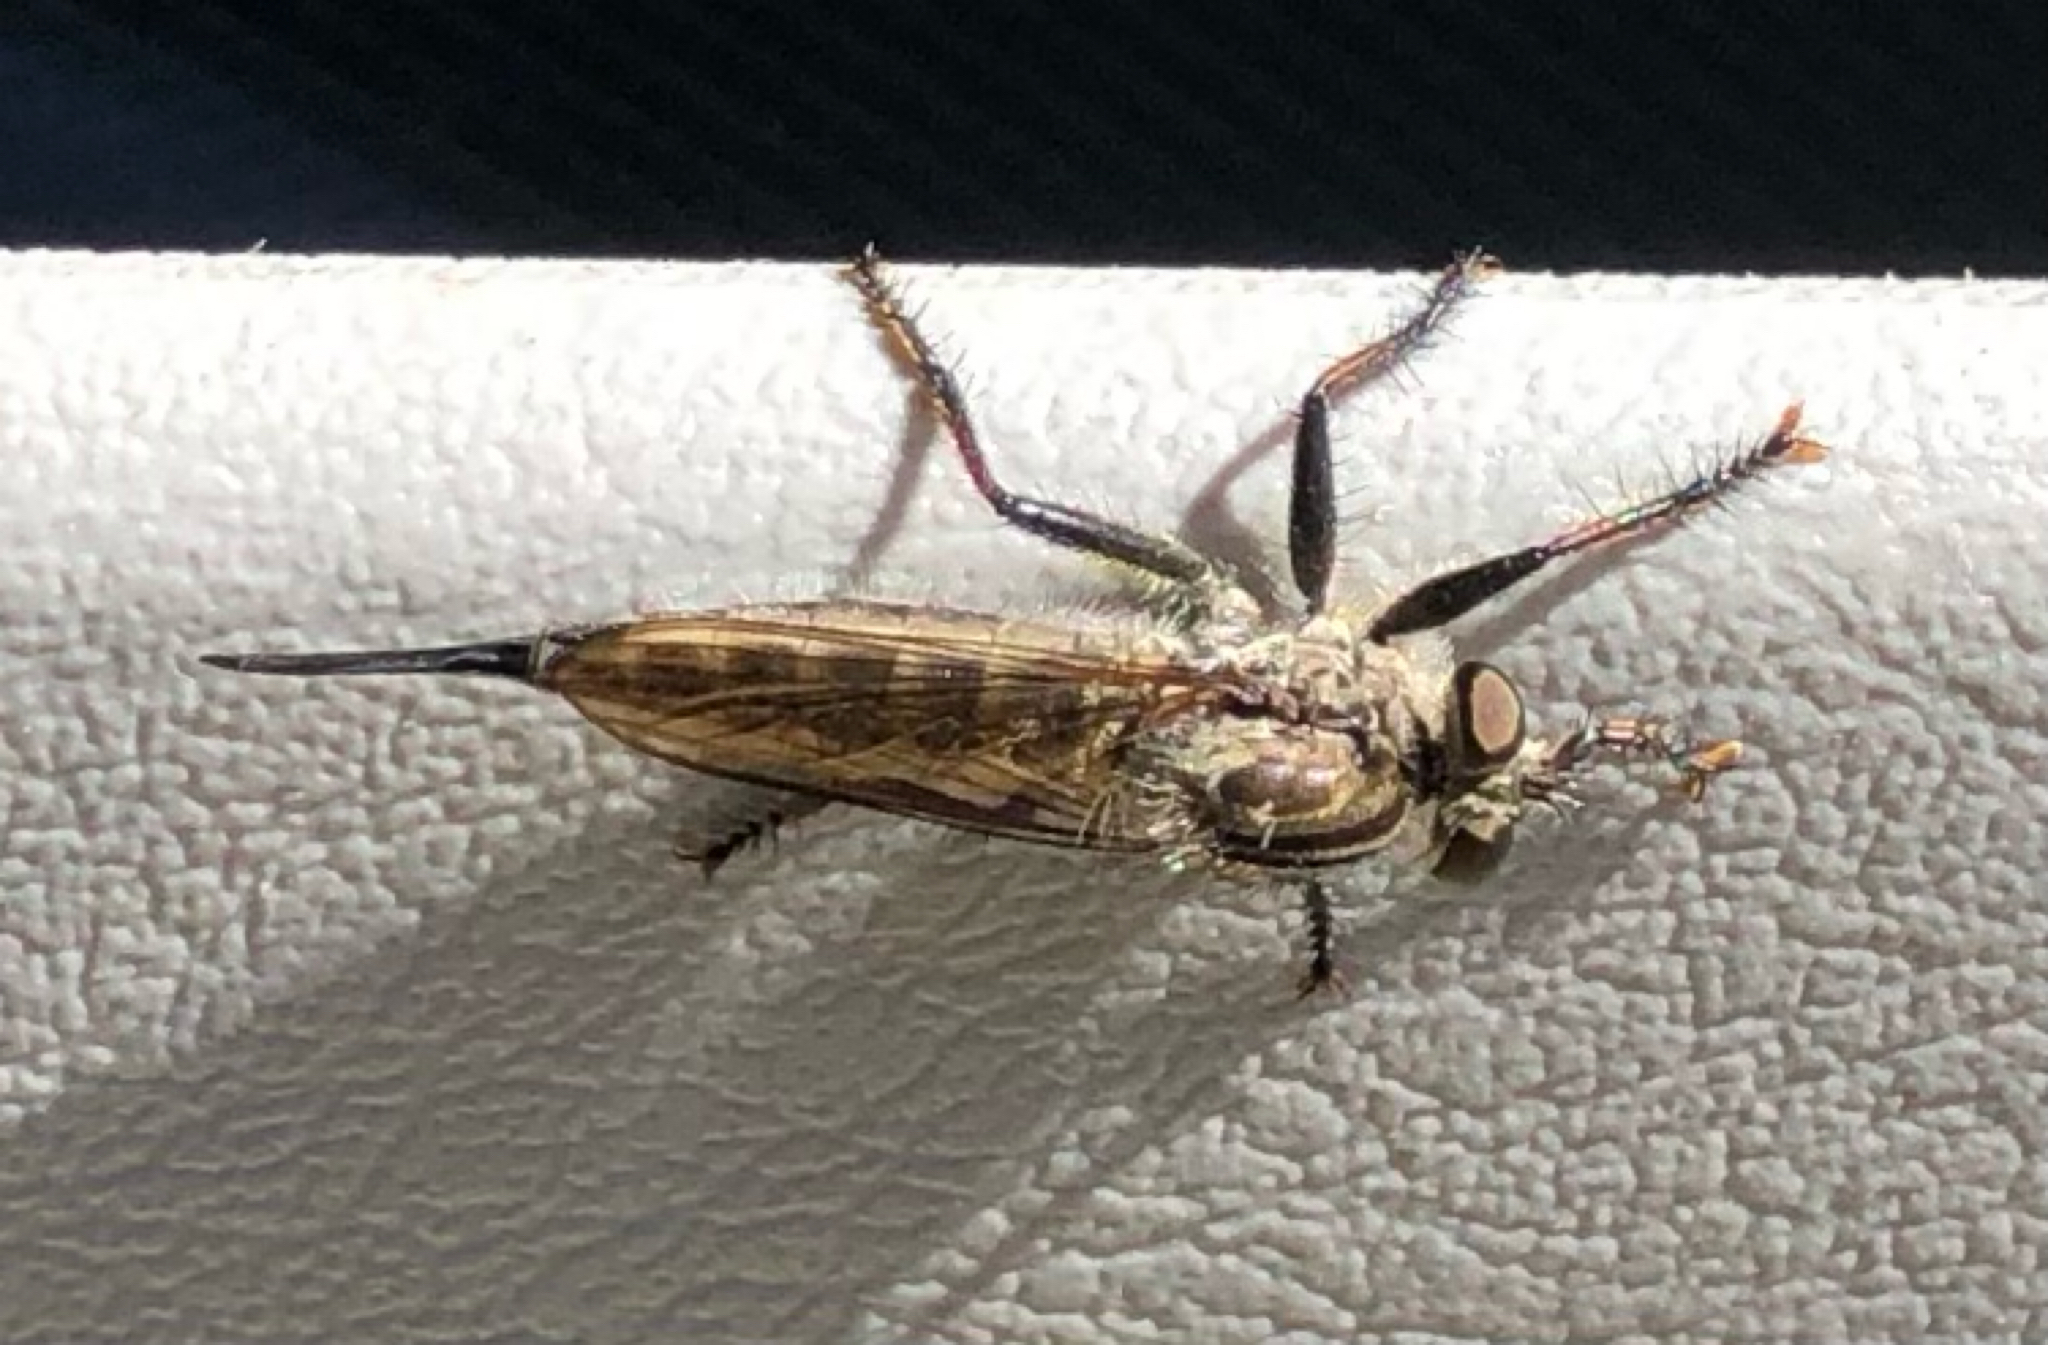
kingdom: Animalia
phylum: Arthropoda
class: Insecta
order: Diptera
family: Asilidae
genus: Efferia
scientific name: Efferia aestuans
